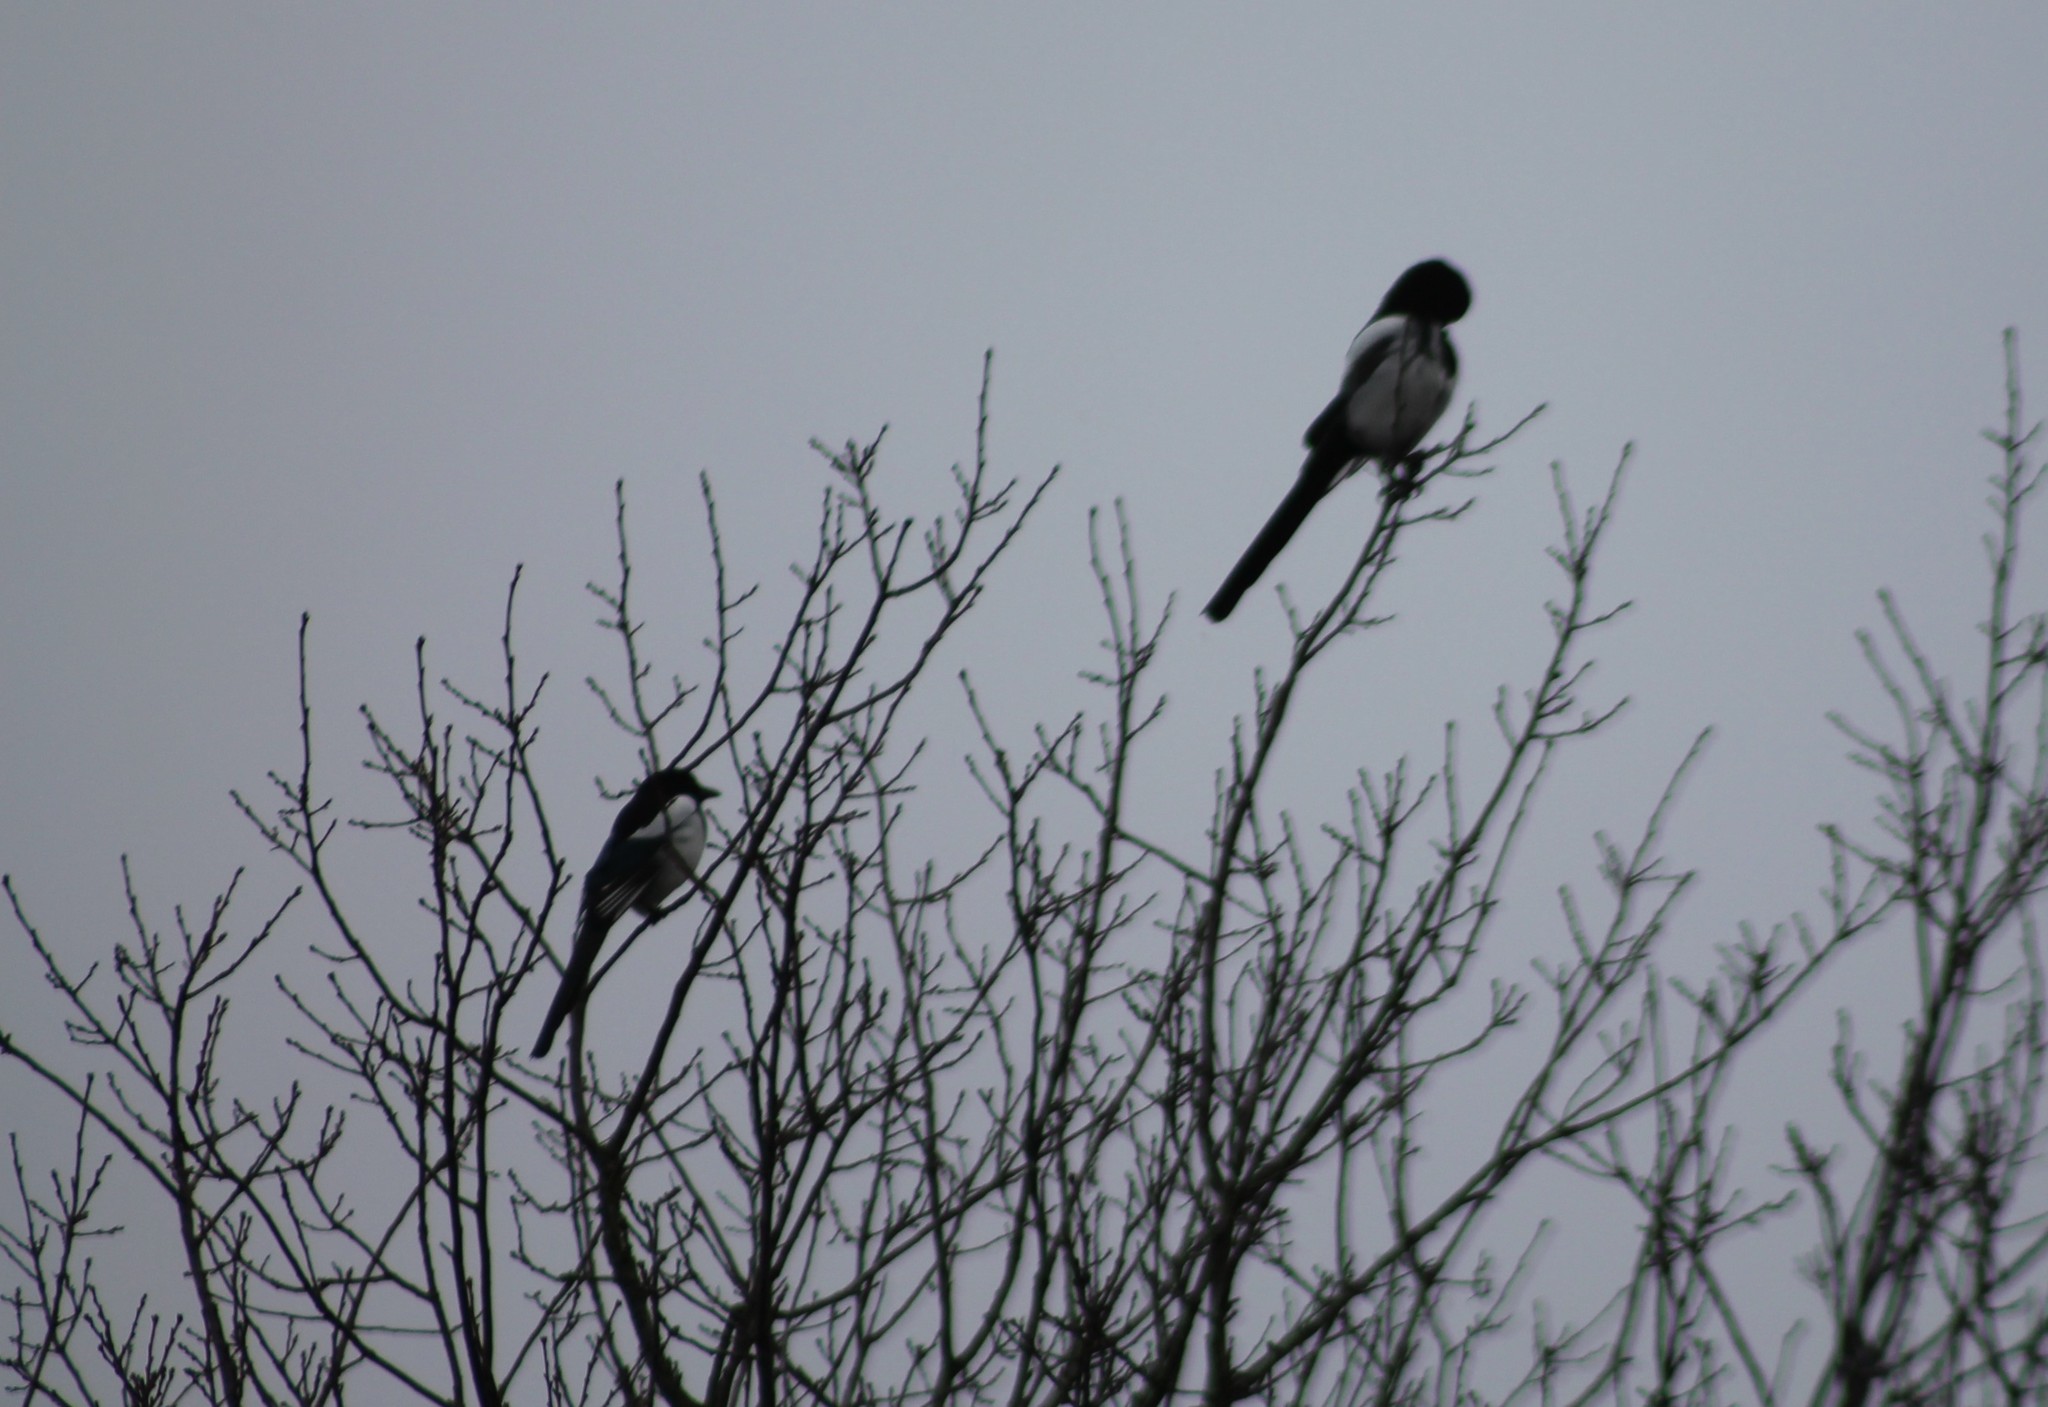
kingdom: Animalia
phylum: Chordata
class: Aves
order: Passeriformes
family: Corvidae
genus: Pica
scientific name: Pica pica
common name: Eurasian magpie
